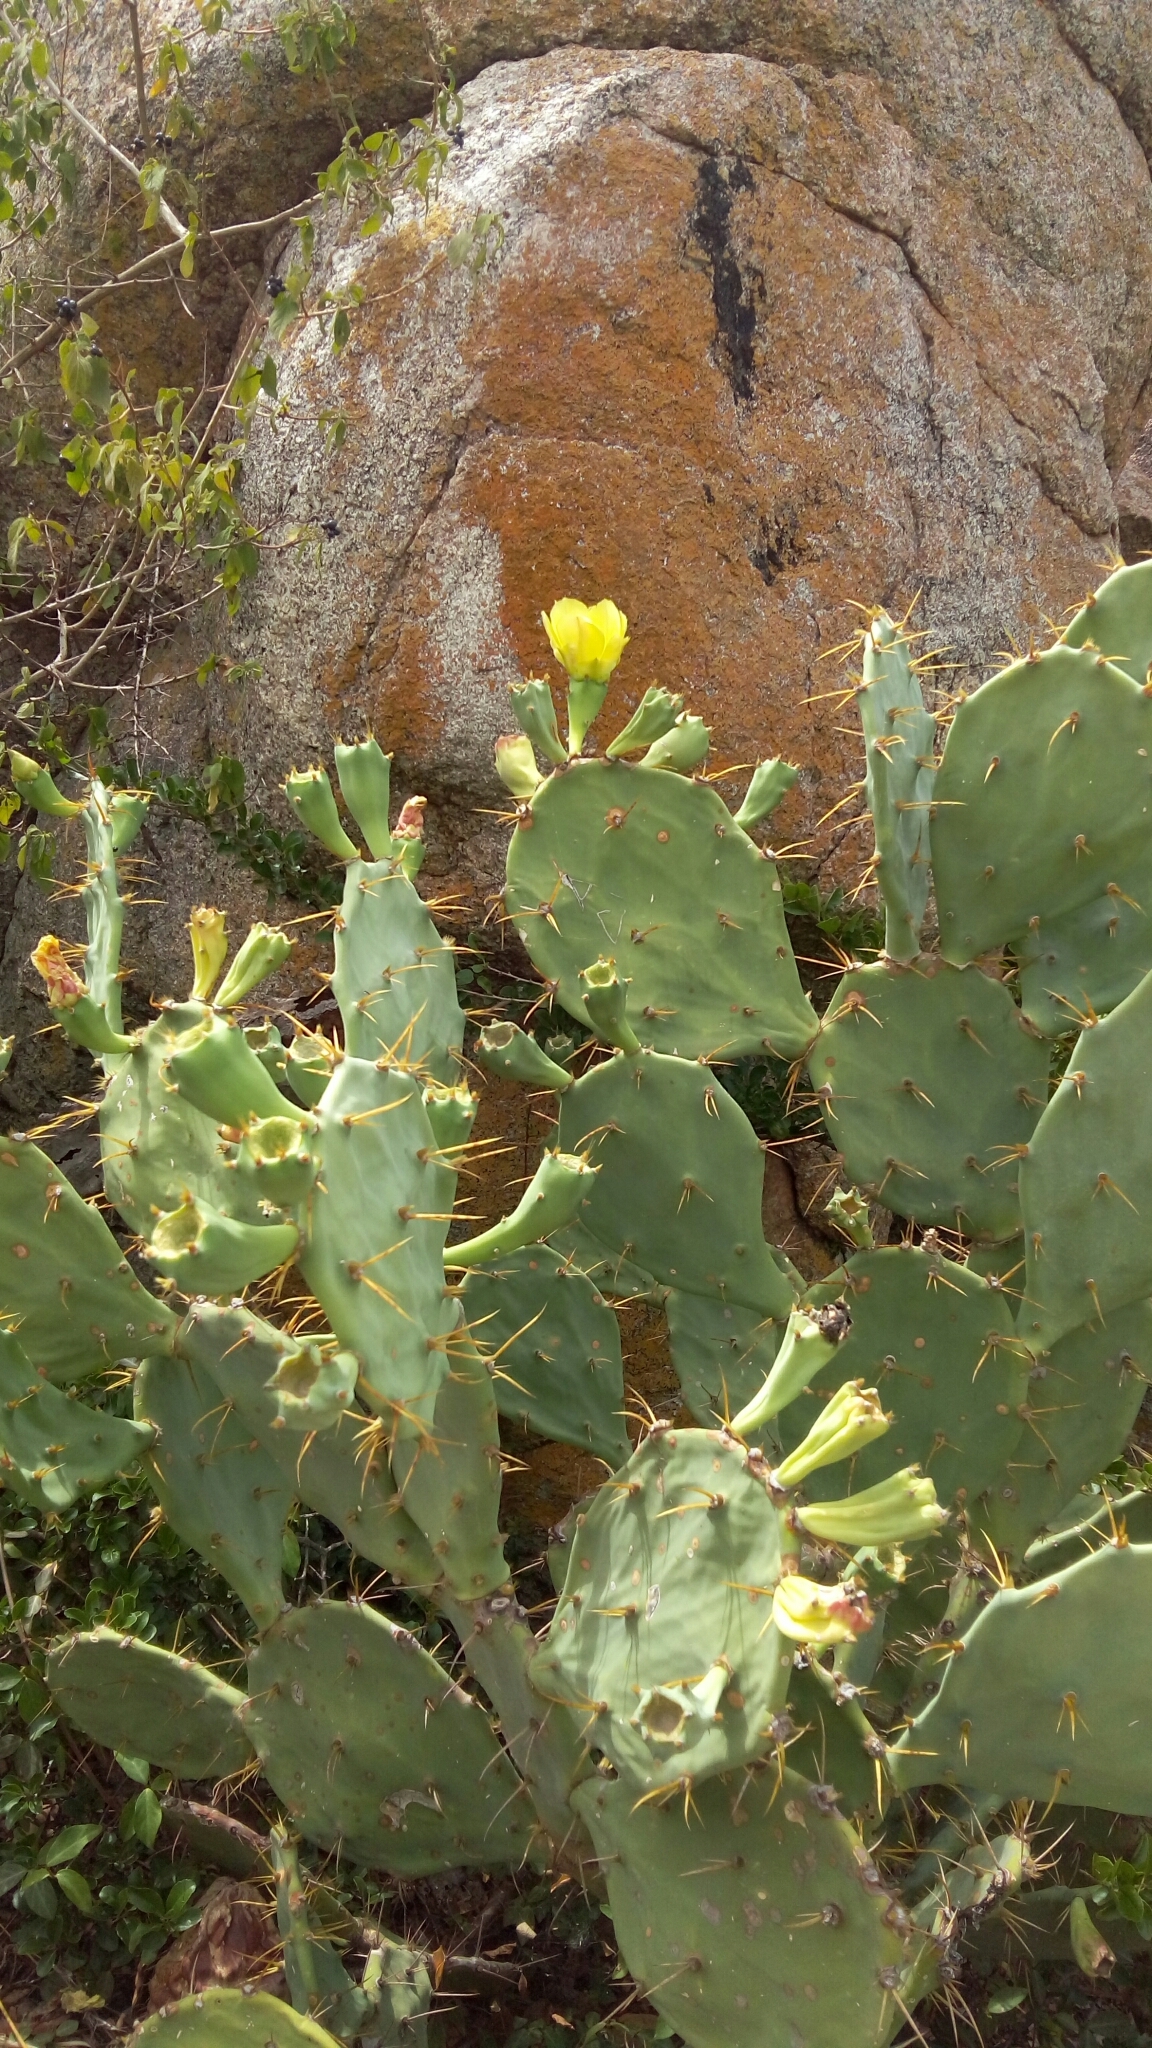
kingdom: Plantae
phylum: Tracheophyta
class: Magnoliopsida
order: Caryophyllales
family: Cactaceae
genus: Opuntia
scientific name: Opuntia stricta
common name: Erect pricklypear
